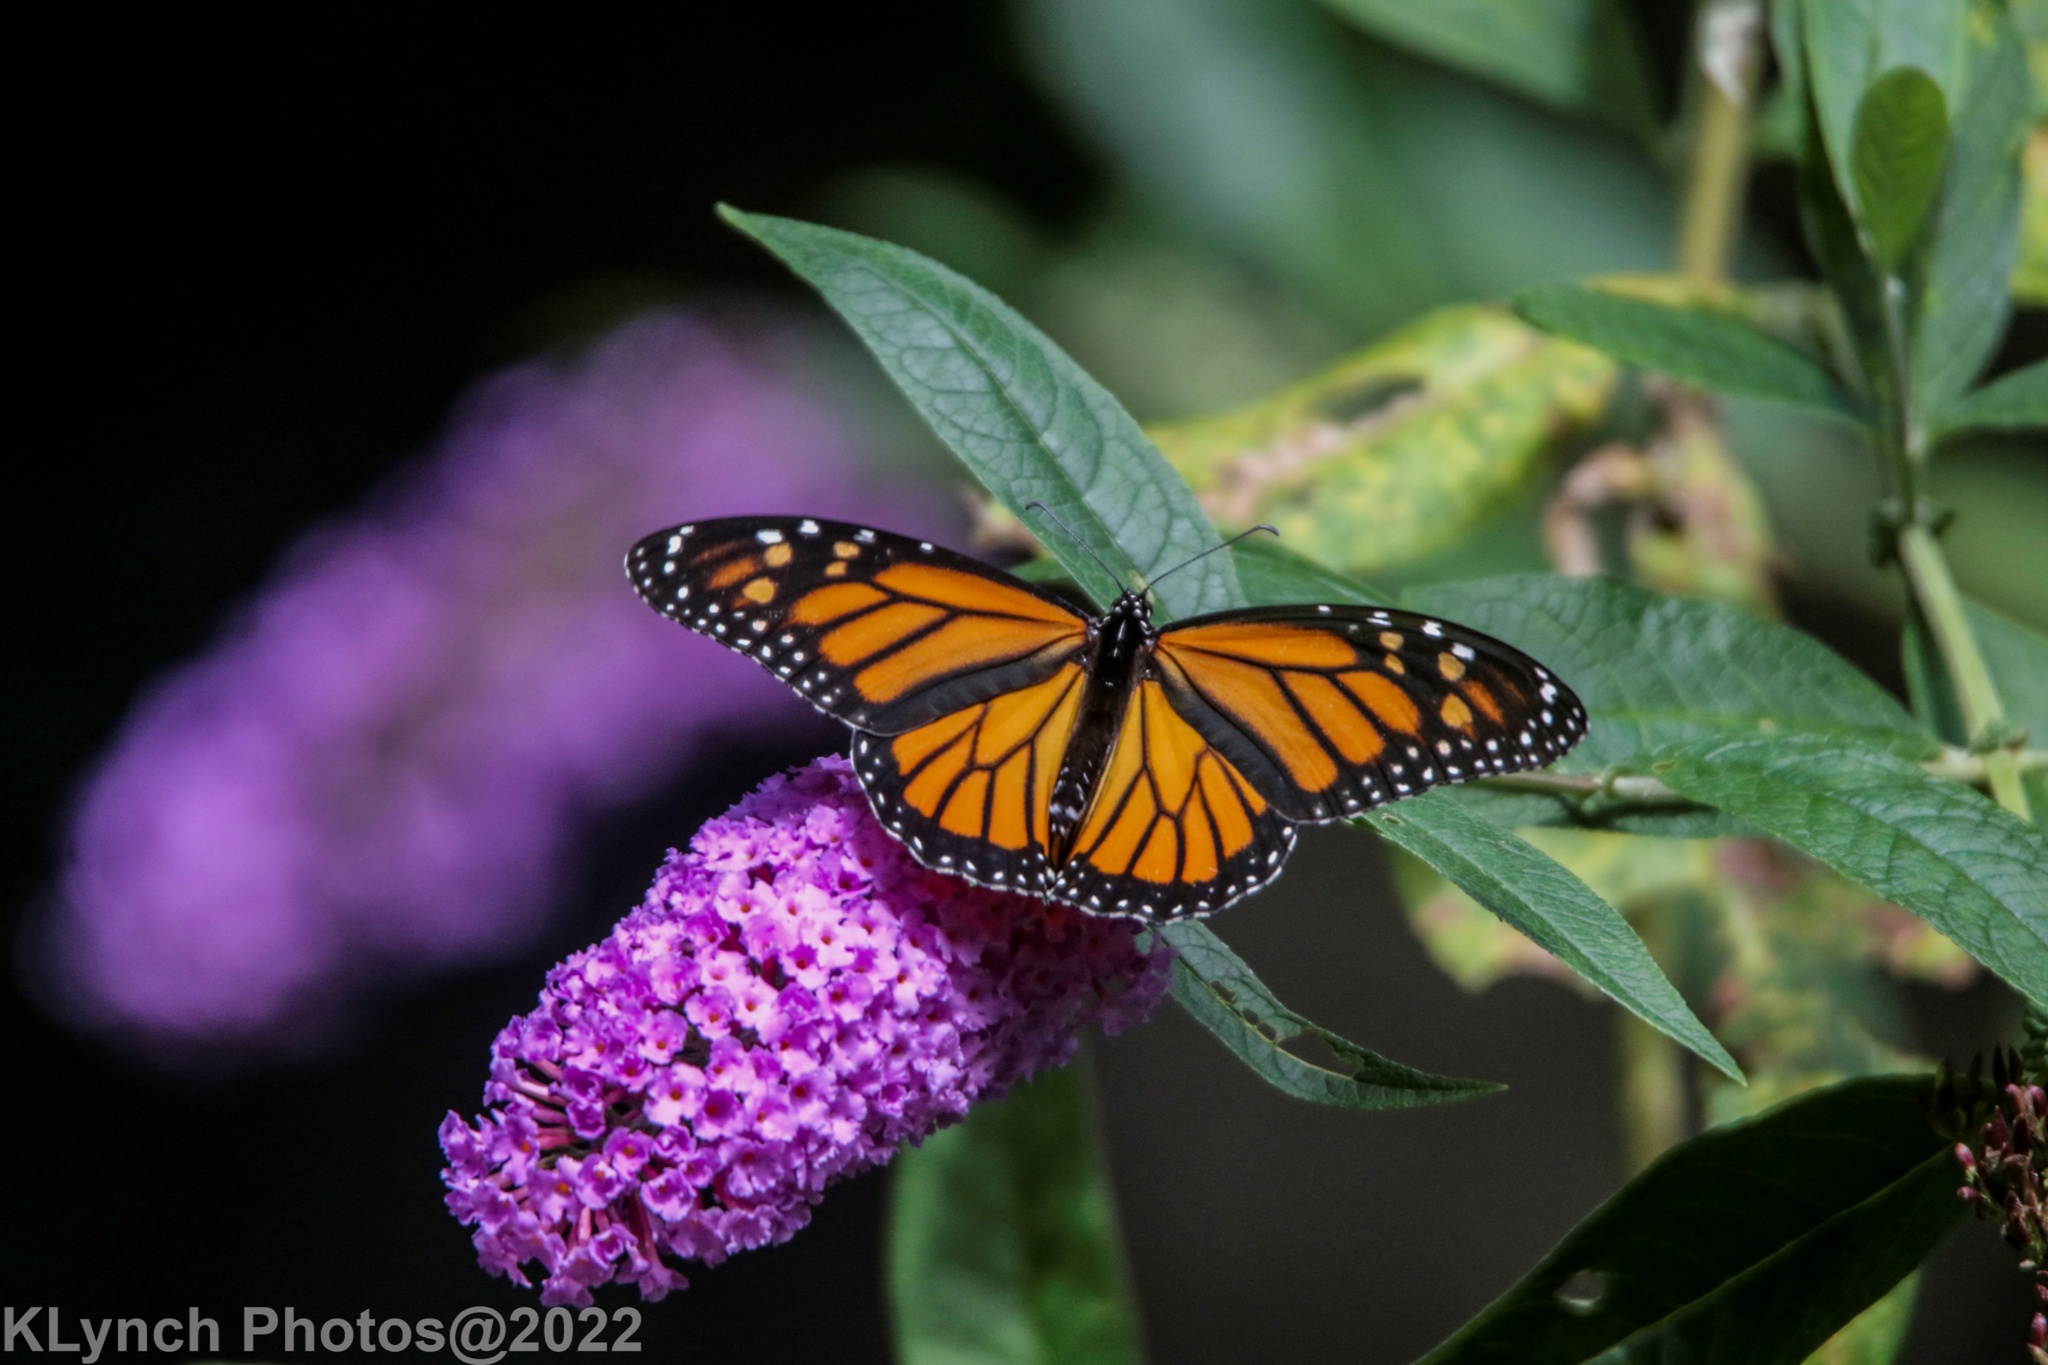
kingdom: Animalia
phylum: Arthropoda
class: Insecta
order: Lepidoptera
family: Nymphalidae
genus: Danaus
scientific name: Danaus plexippus
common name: Monarch
